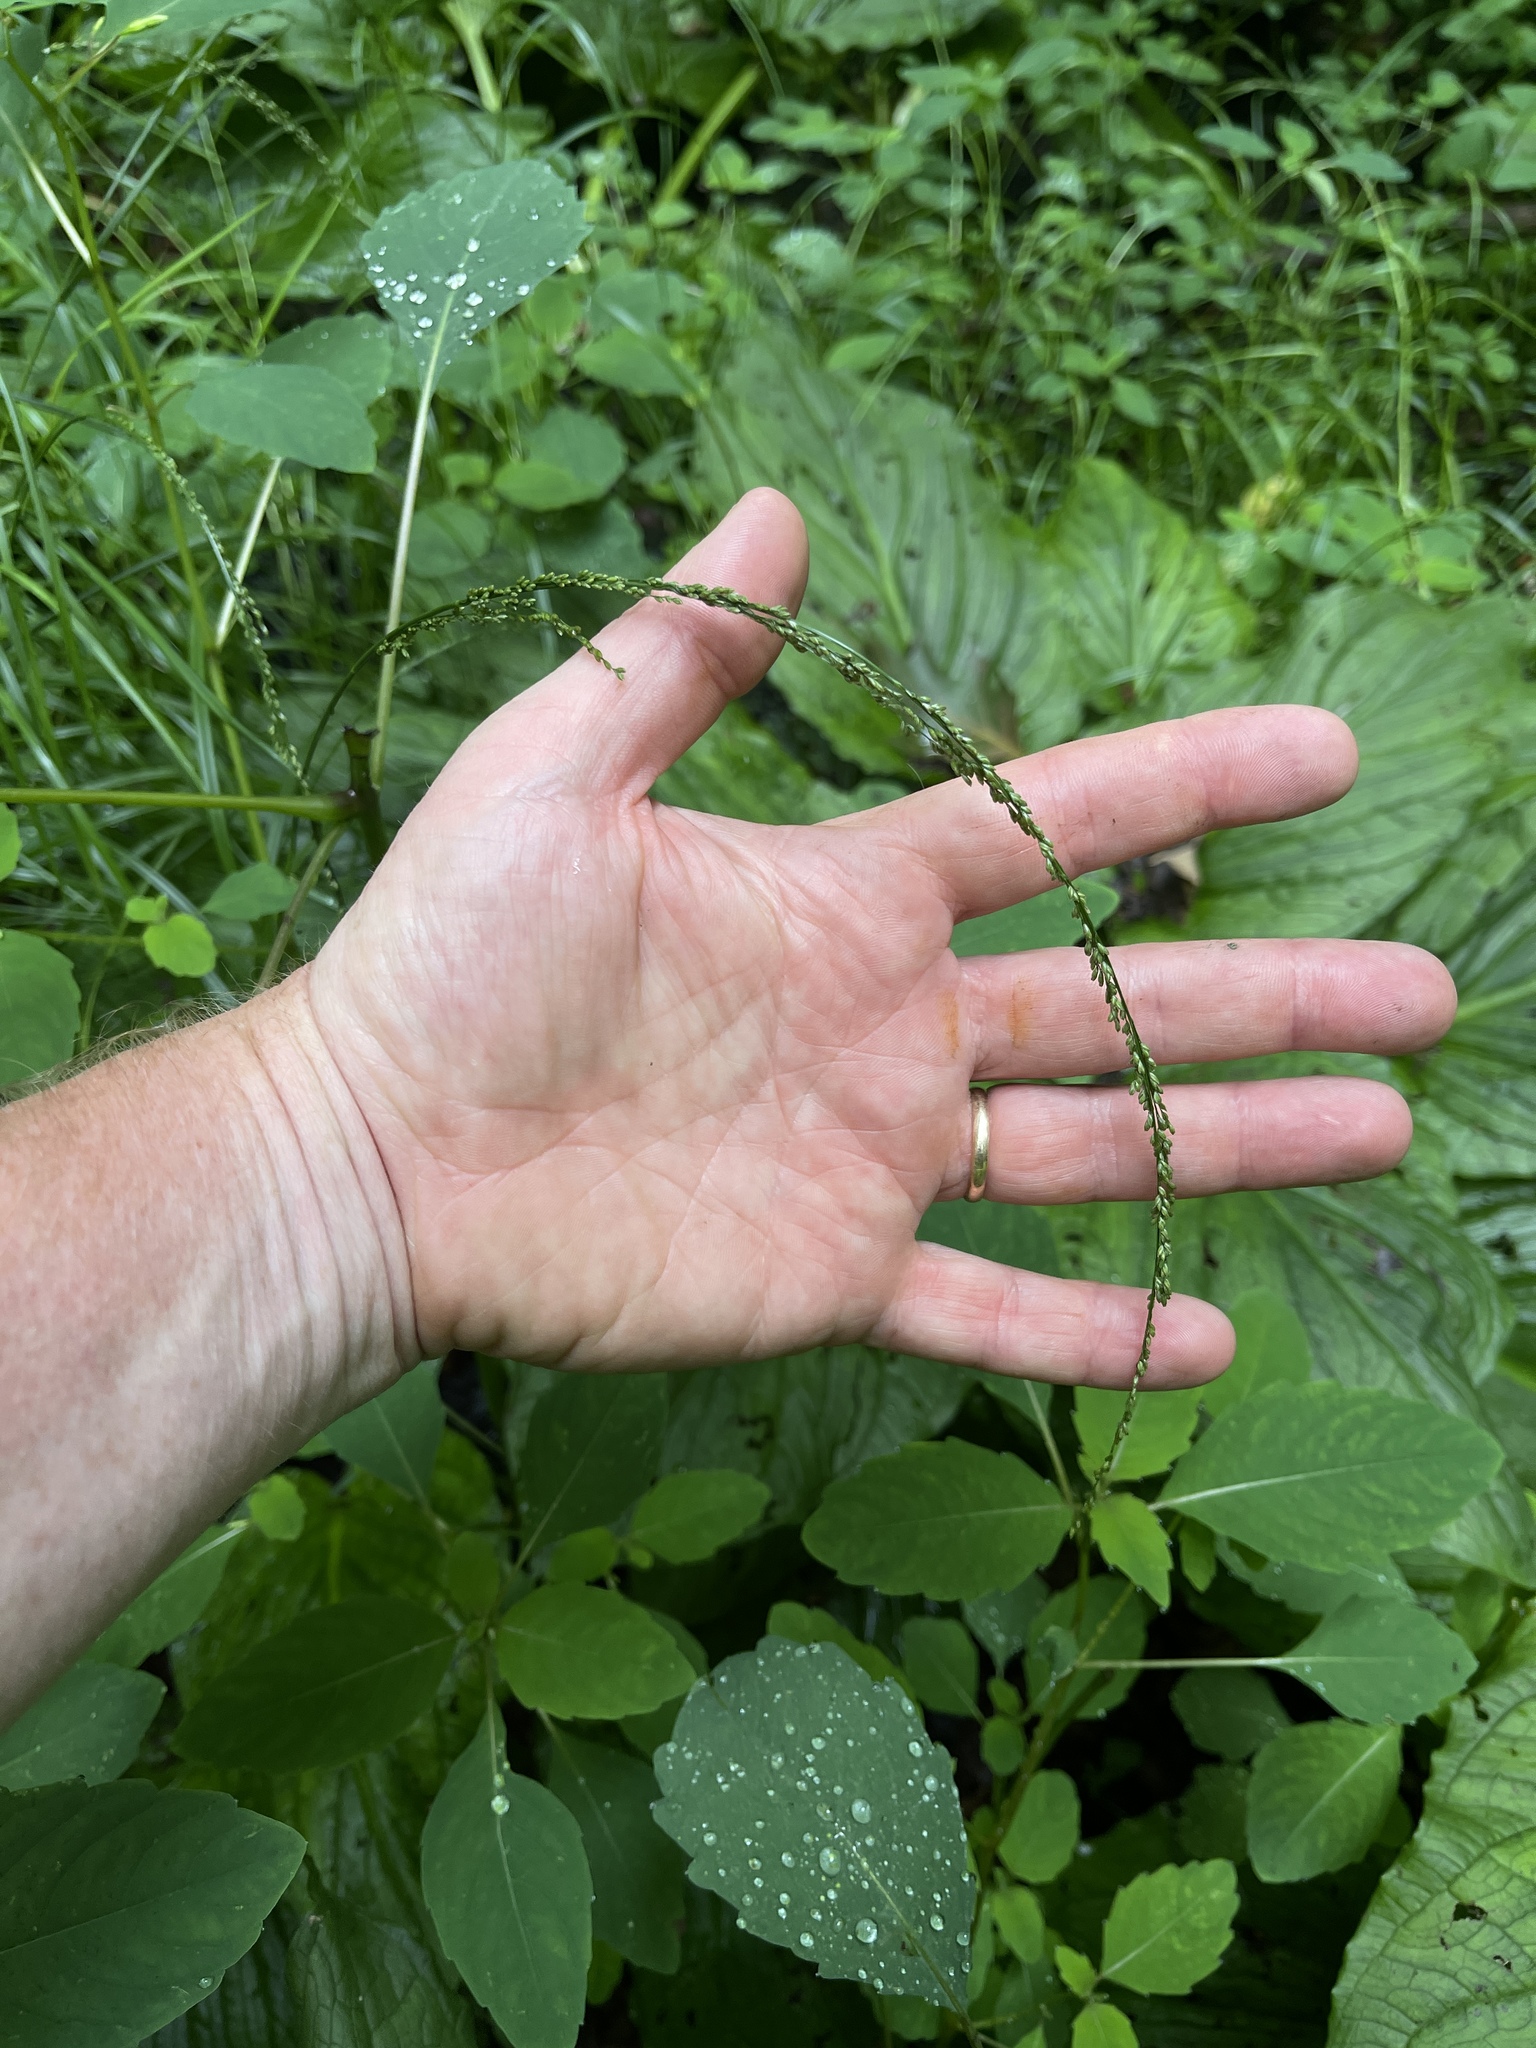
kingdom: Plantae
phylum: Tracheophyta
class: Liliopsida
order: Poales
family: Poaceae
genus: Glyceria
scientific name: Glyceria melicaria
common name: Long mannagrass
